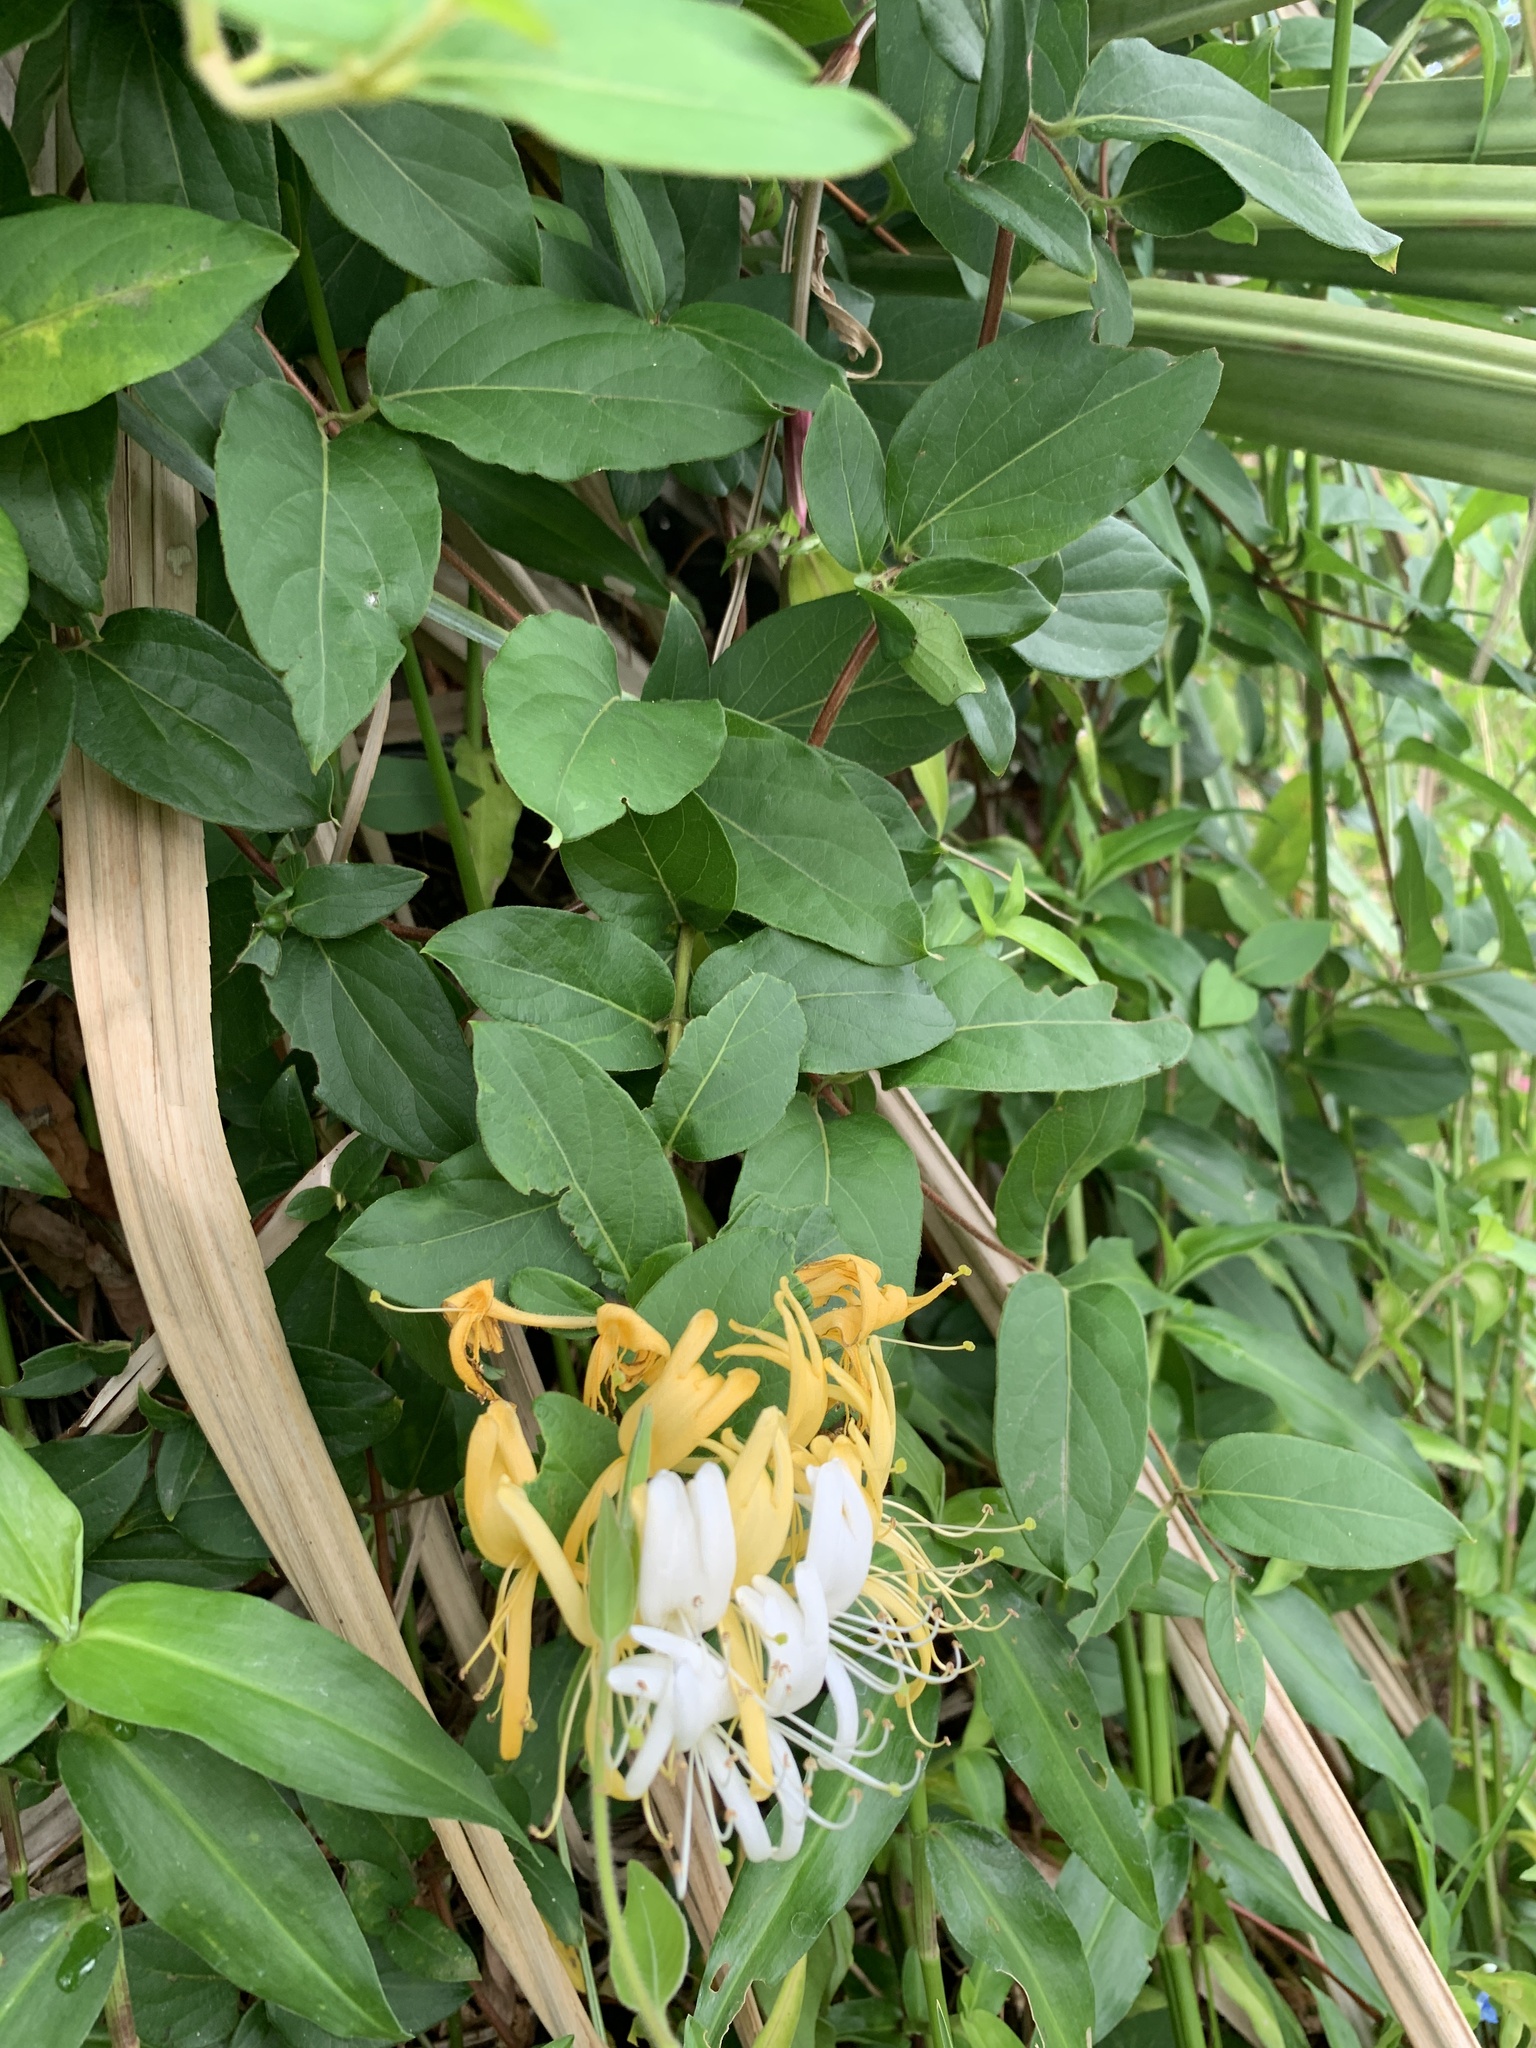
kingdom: Plantae
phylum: Tracheophyta
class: Magnoliopsida
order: Dipsacales
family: Caprifoliaceae
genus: Lonicera
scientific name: Lonicera japonica
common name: Japanese honeysuckle
